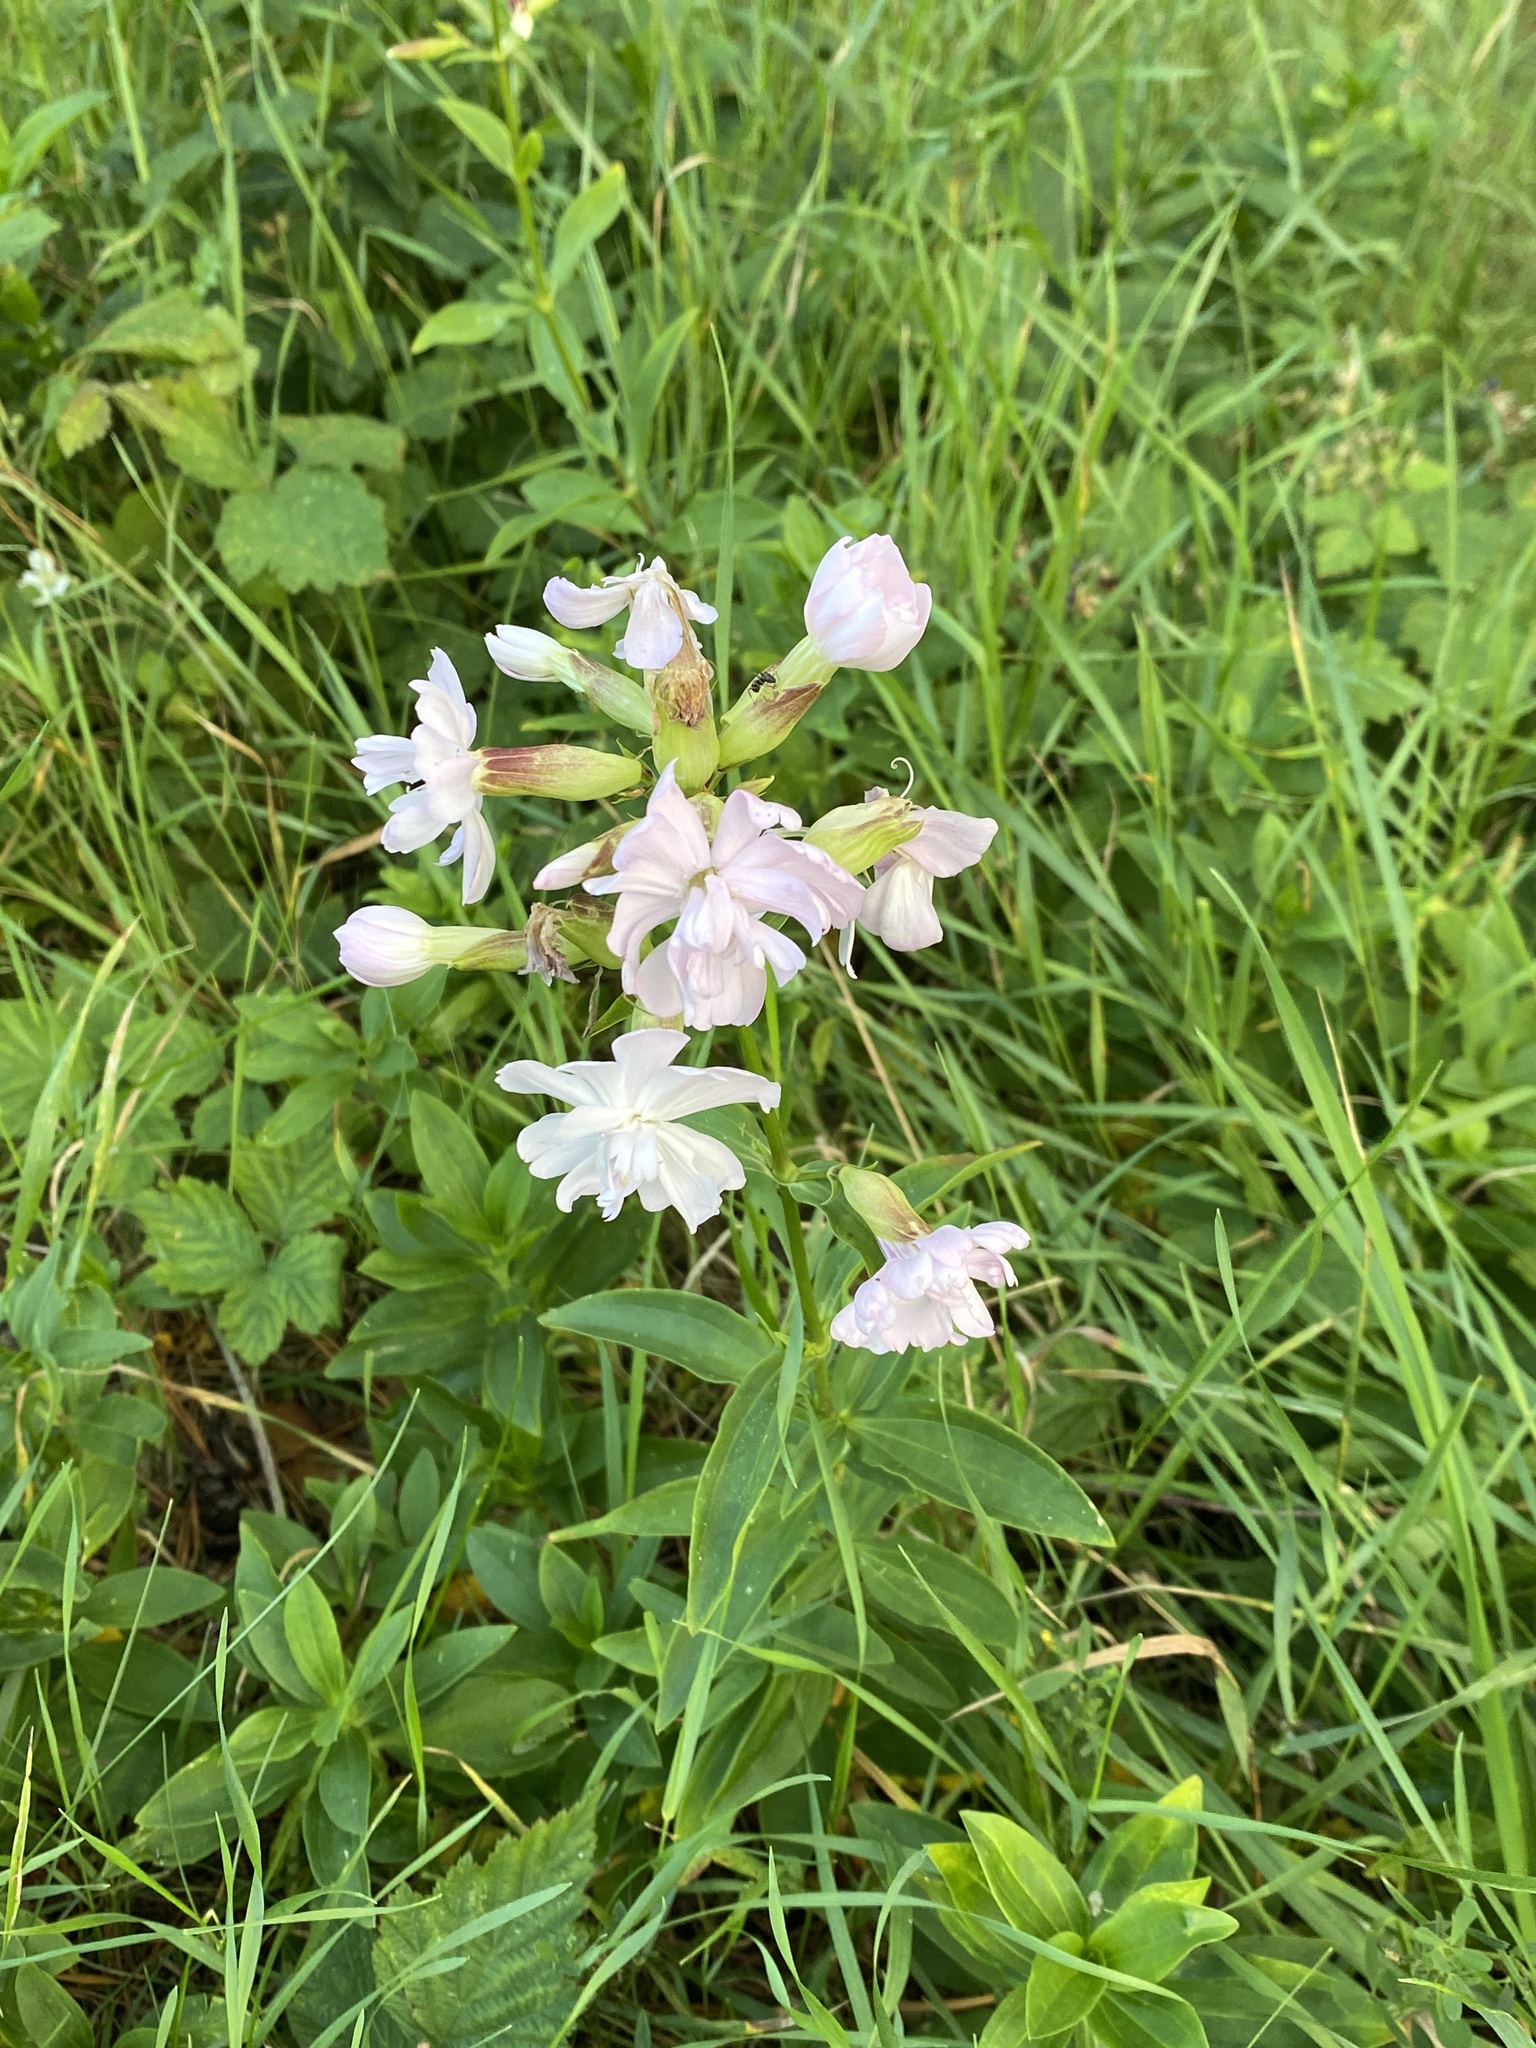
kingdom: Plantae
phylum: Tracheophyta
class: Magnoliopsida
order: Caryophyllales
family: Caryophyllaceae
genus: Saponaria
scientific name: Saponaria officinalis
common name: Soapwort
